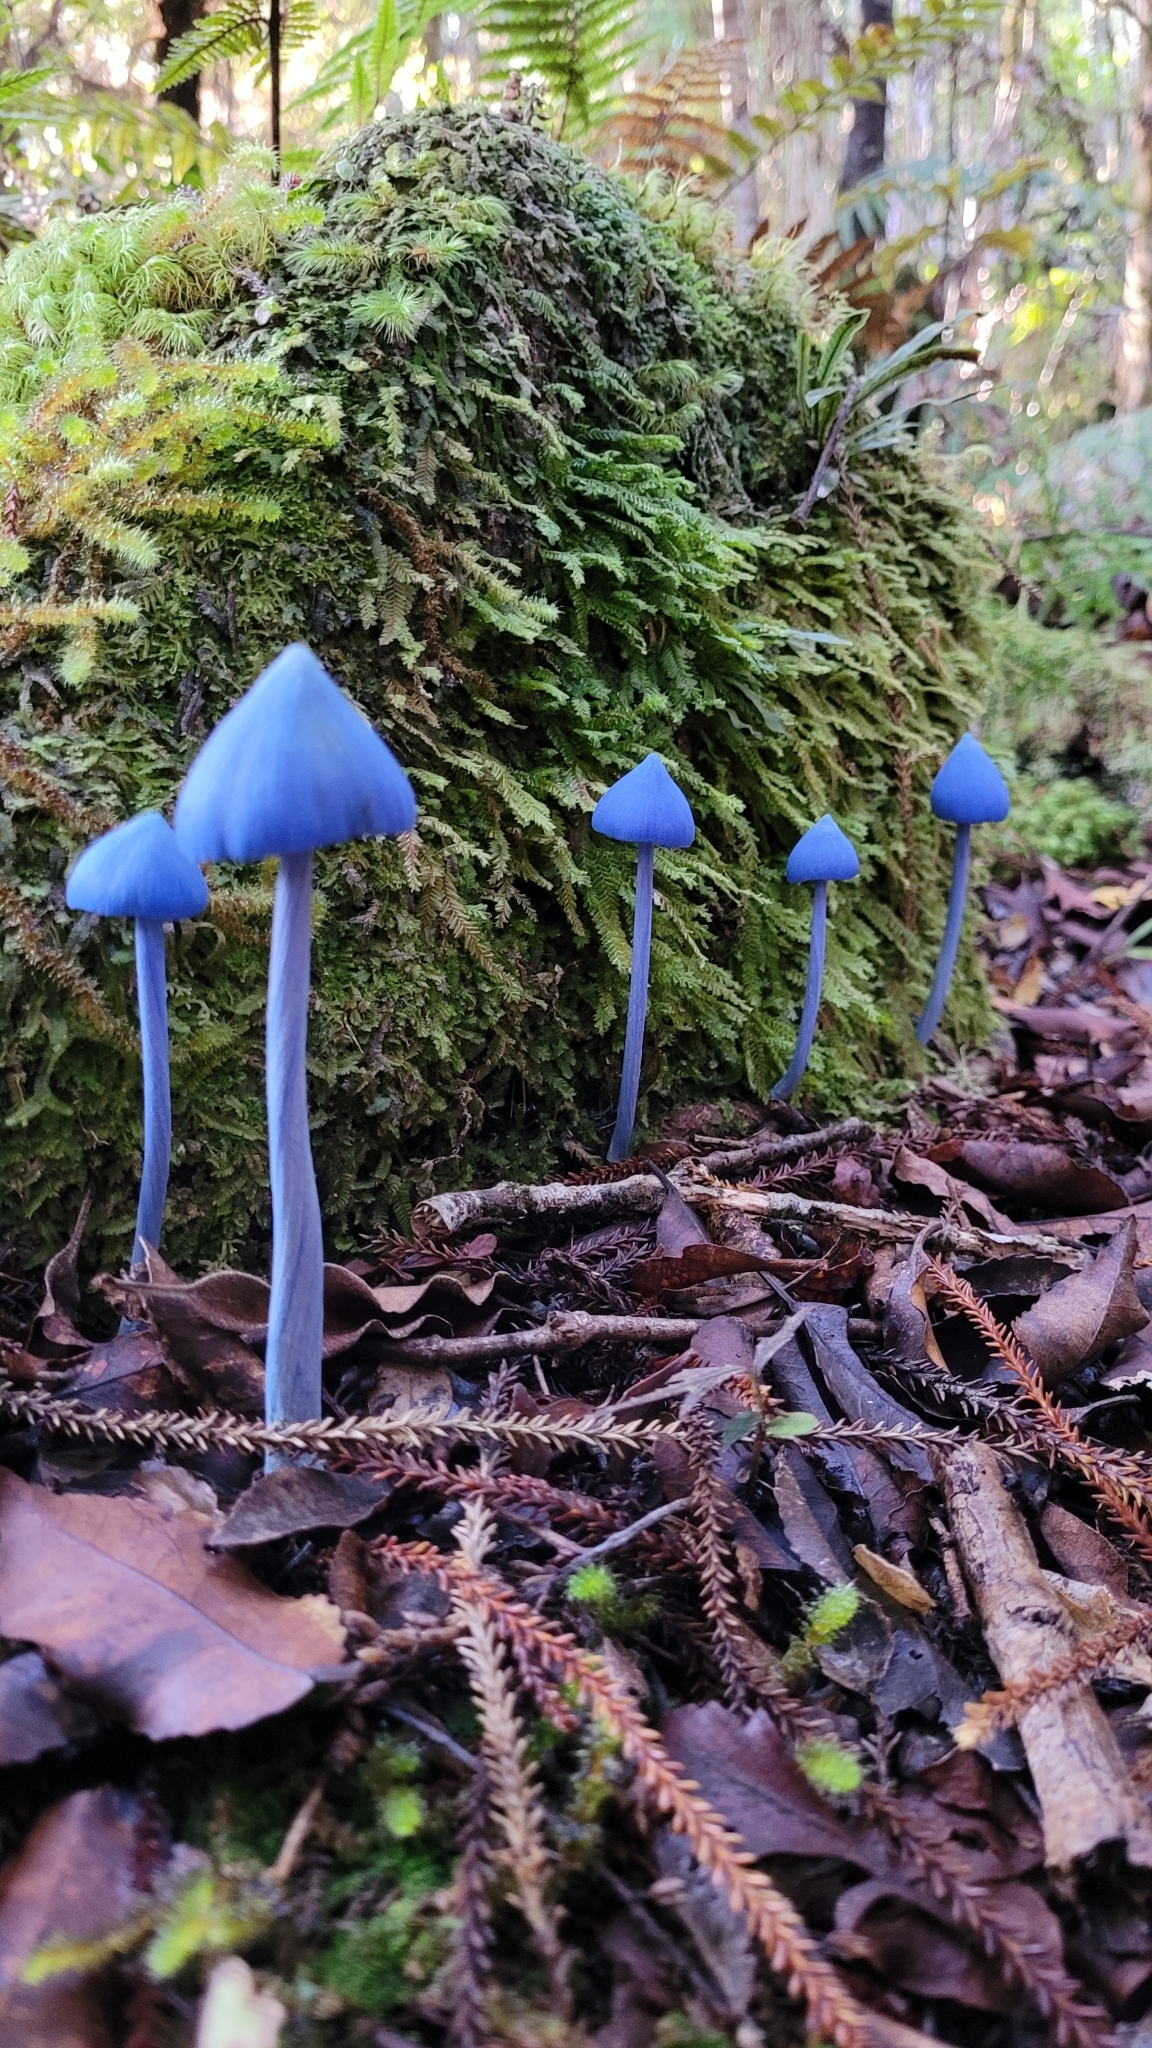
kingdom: Fungi
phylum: Basidiomycota
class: Agaricomycetes
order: Agaricales
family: Entolomataceae
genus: Entoloma
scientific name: Entoloma hochstetteri
